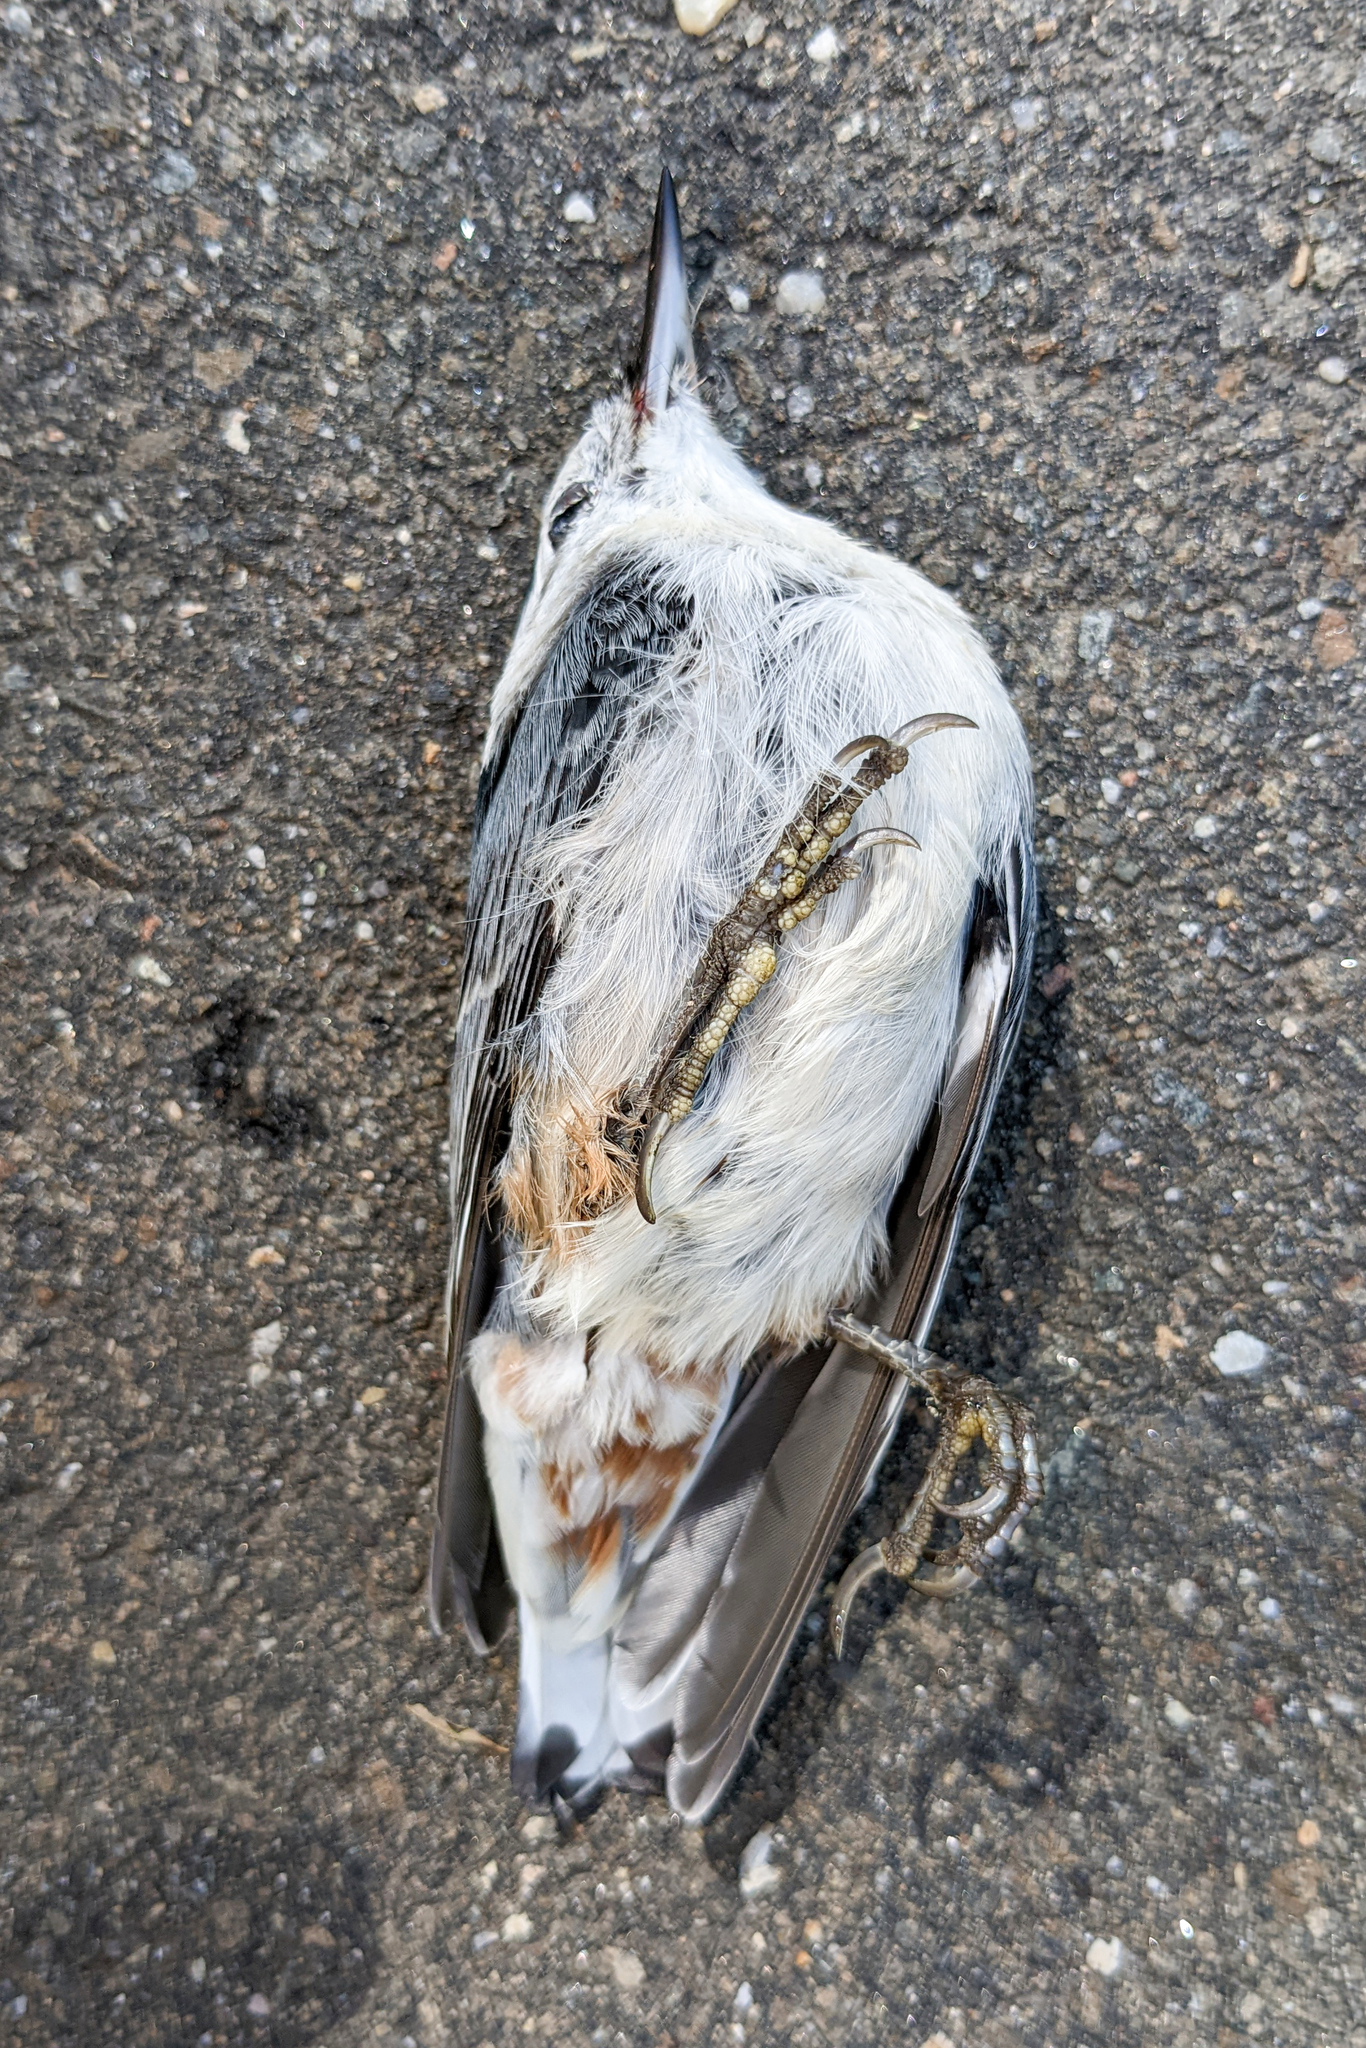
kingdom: Animalia
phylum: Chordata
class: Aves
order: Passeriformes
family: Sittidae
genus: Sitta
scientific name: Sitta carolinensis
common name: White-breasted nuthatch
